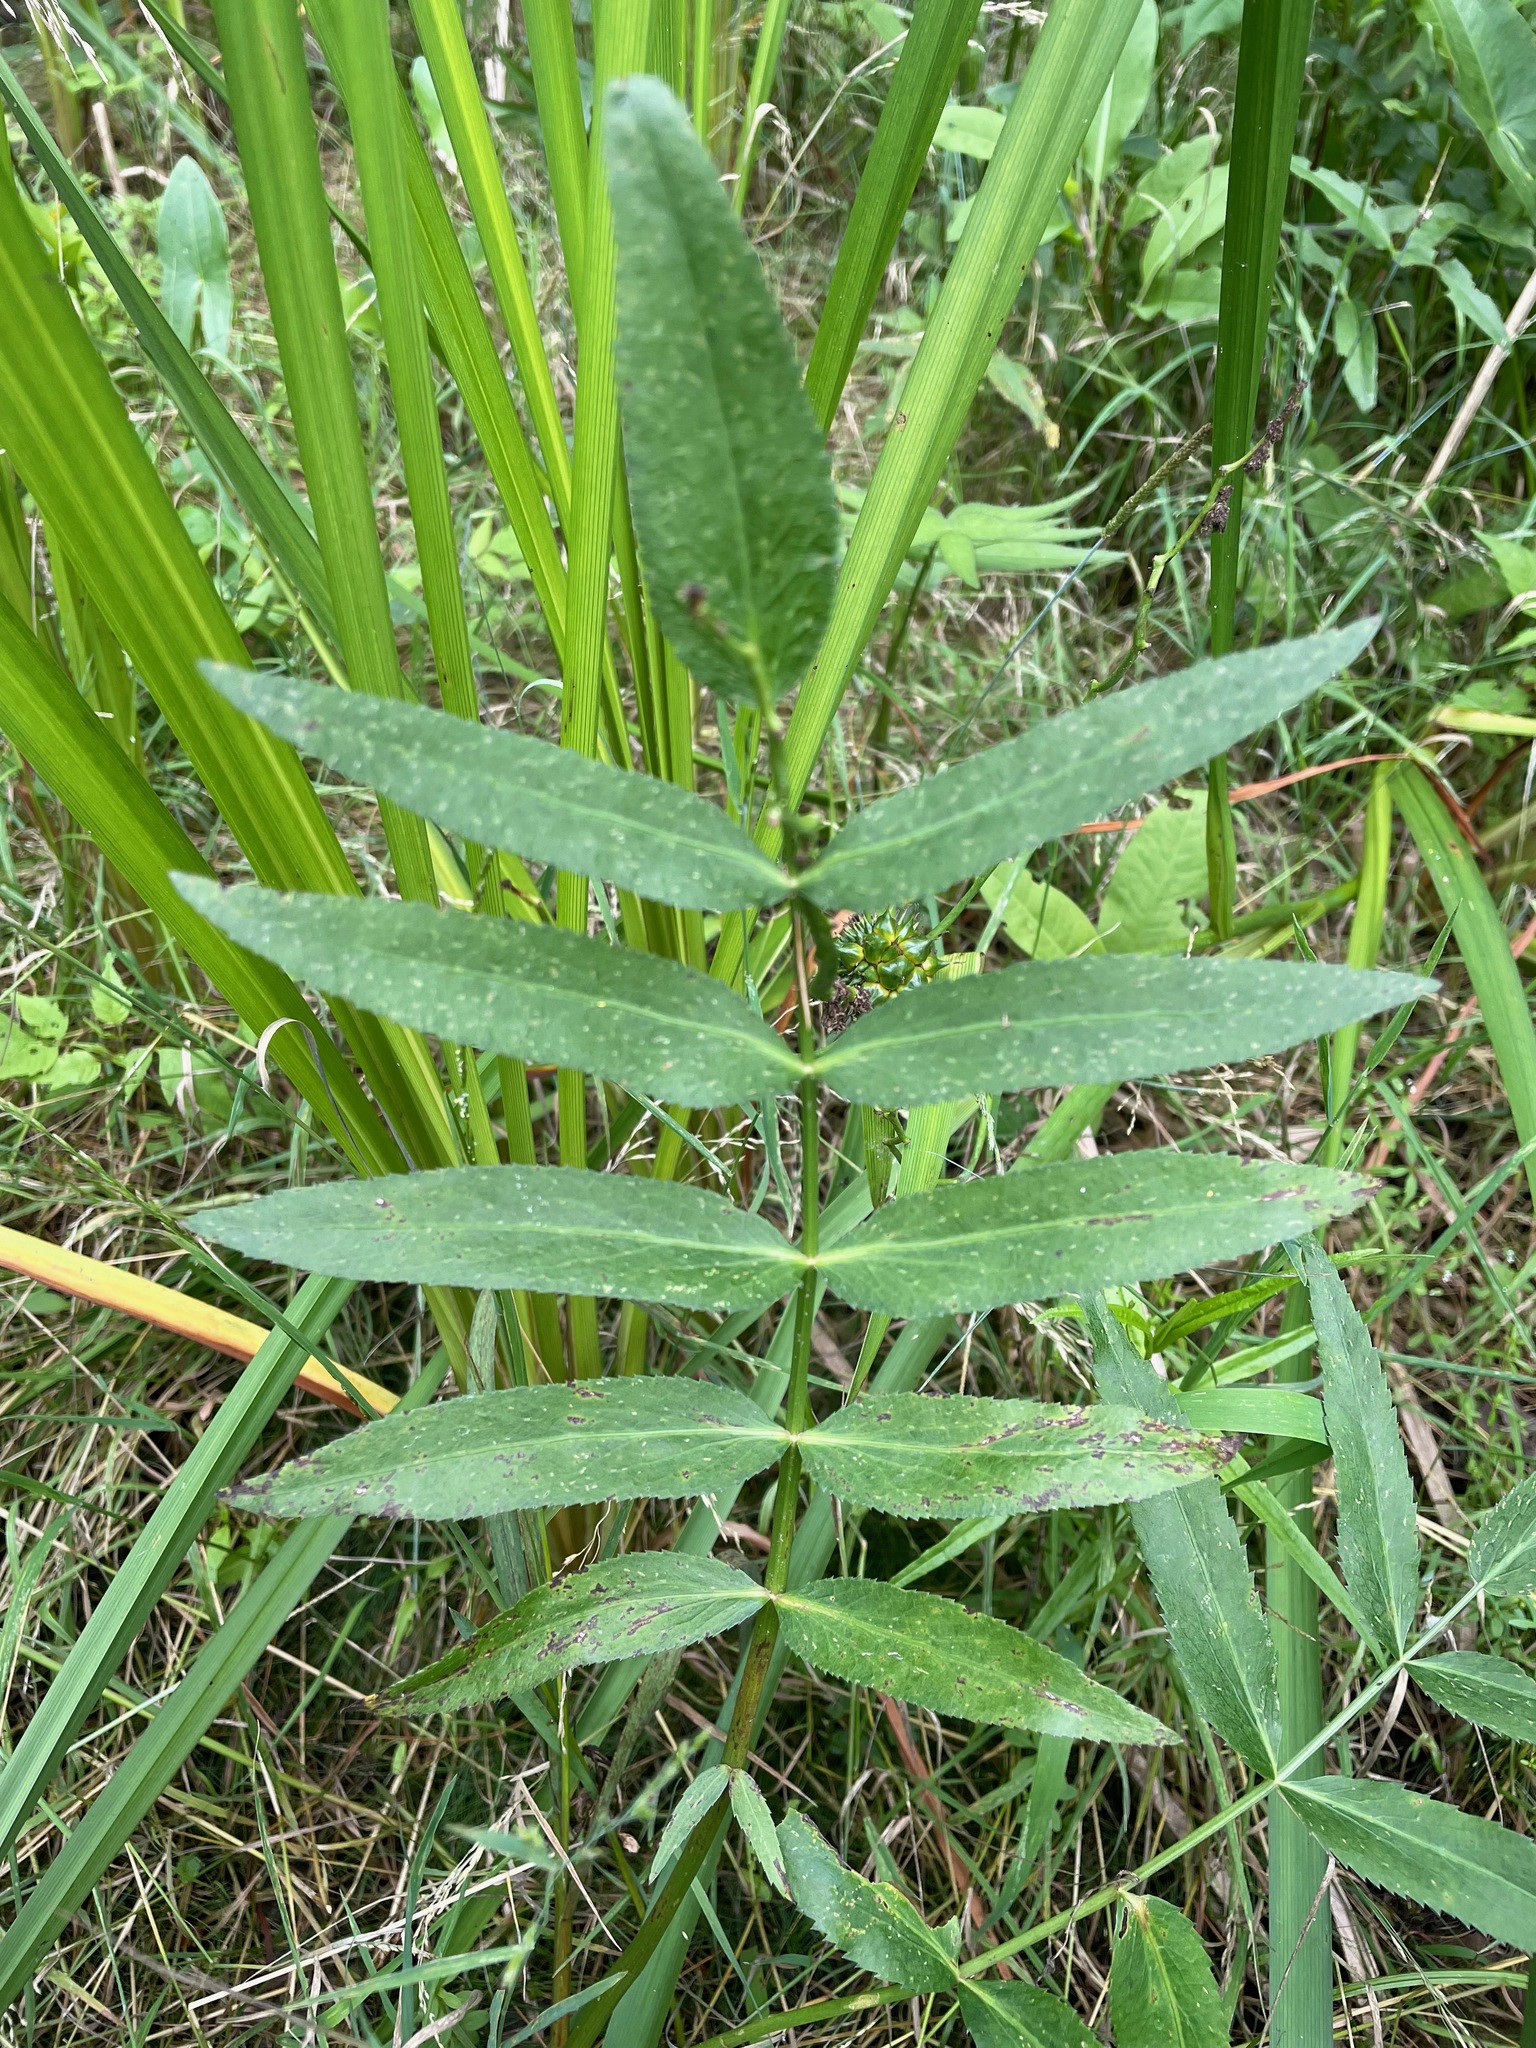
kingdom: Plantae
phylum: Tracheophyta
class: Magnoliopsida
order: Apiales
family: Apiaceae
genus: Sium
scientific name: Sium suave
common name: Hemlock water-parsnip
